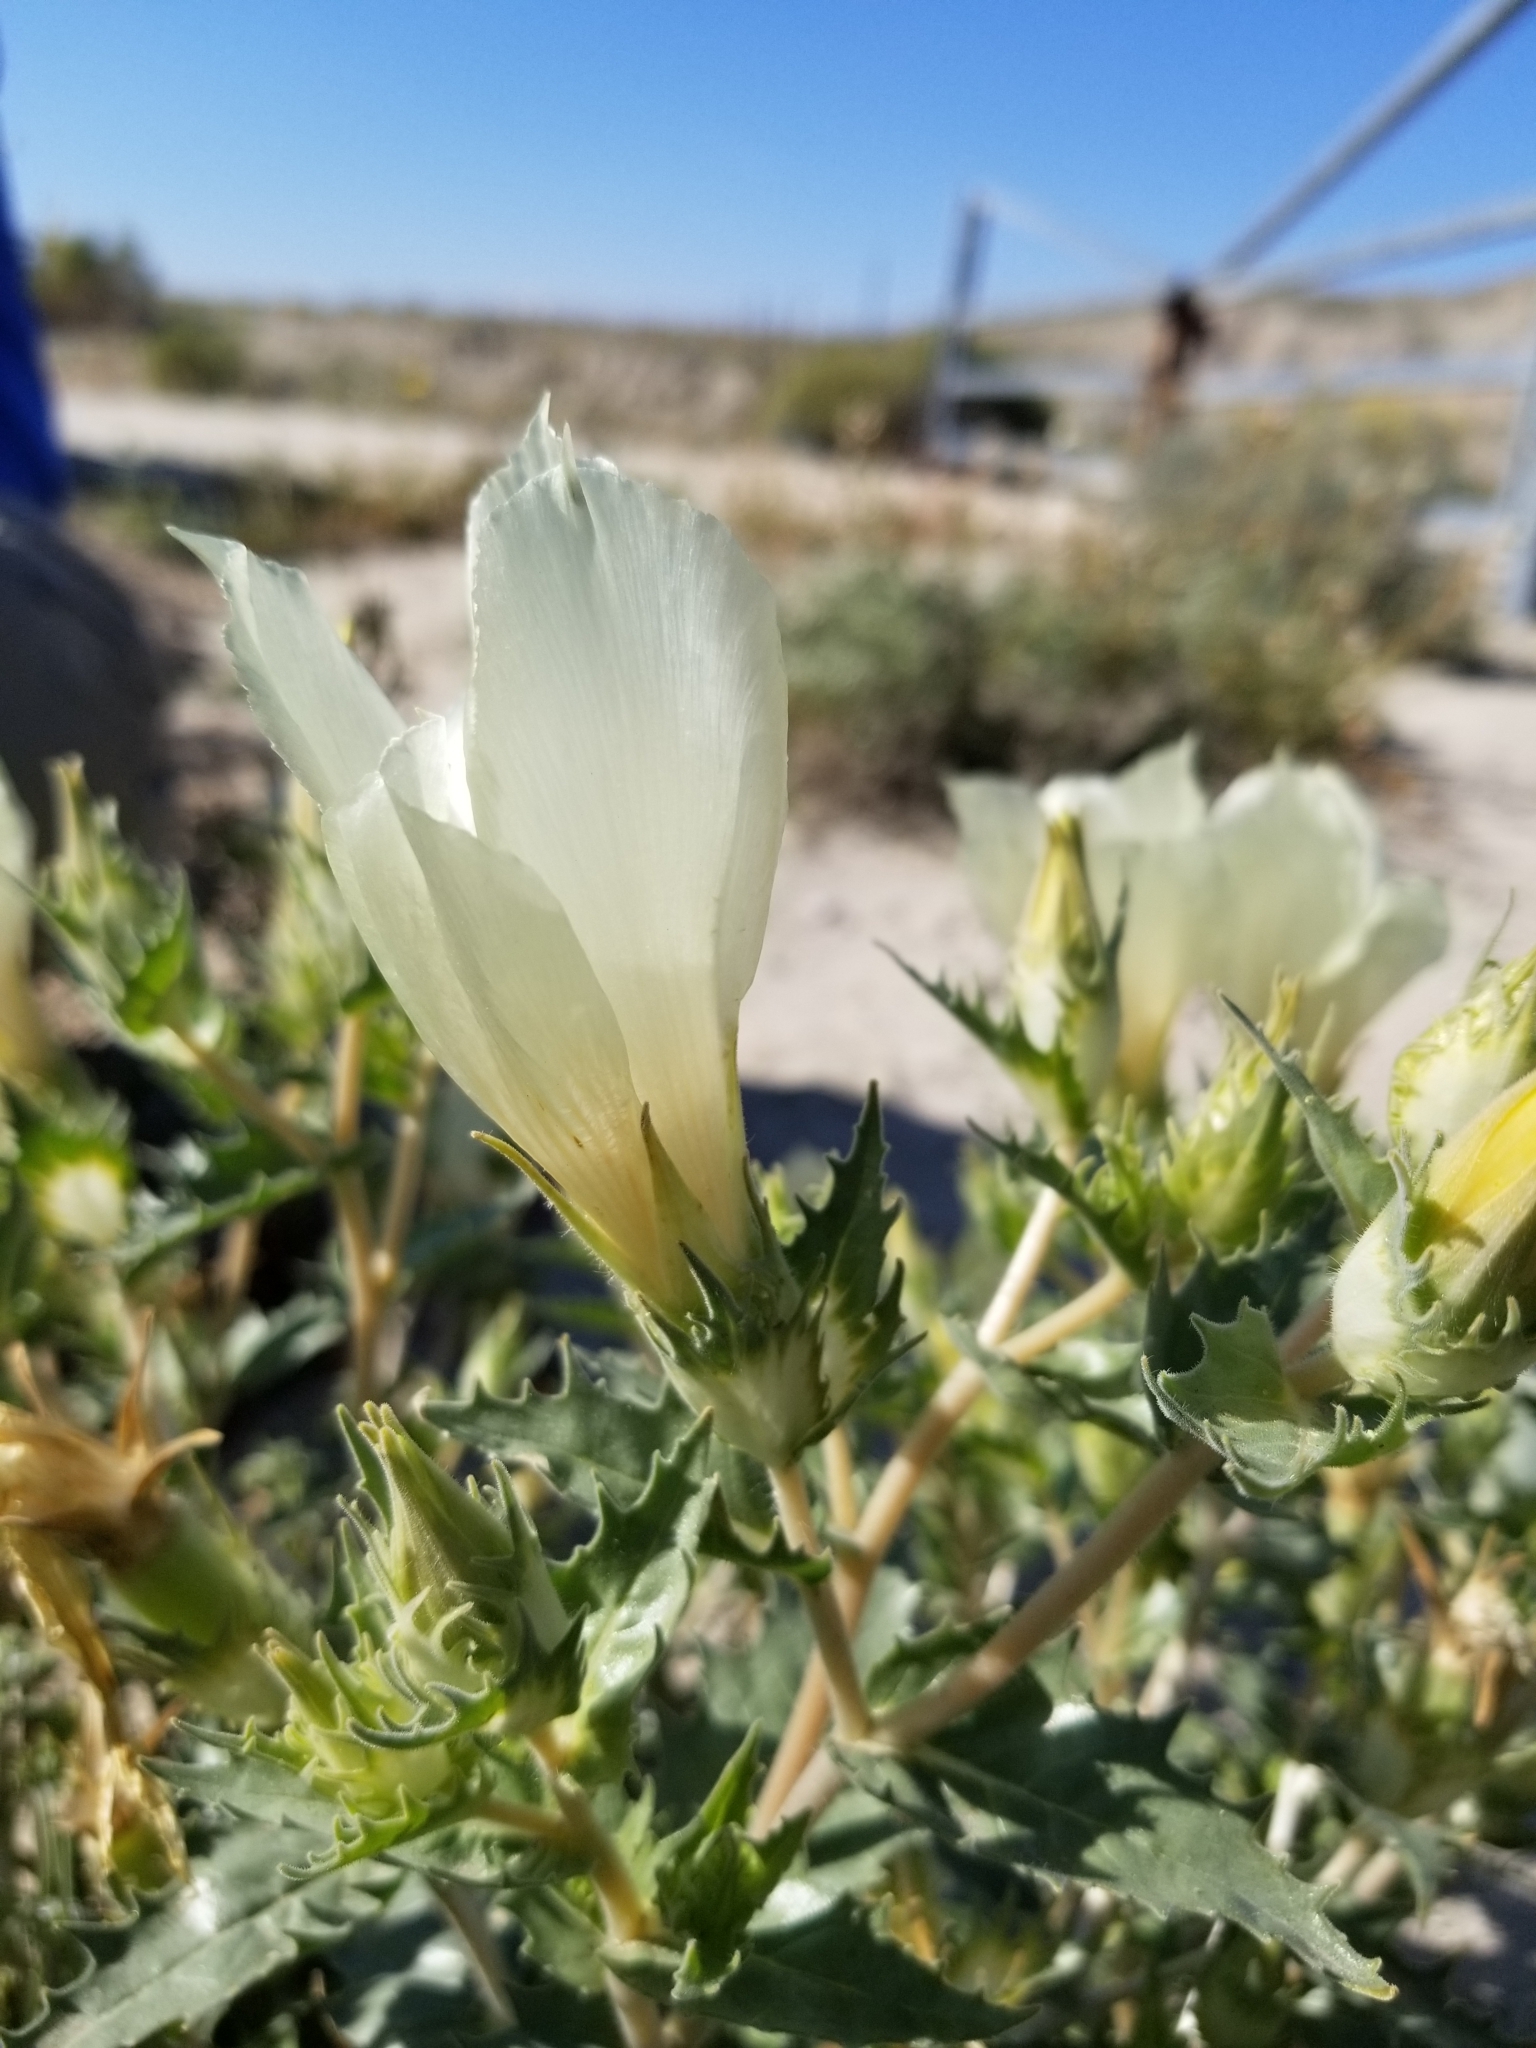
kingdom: Plantae
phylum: Tracheophyta
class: Magnoliopsida
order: Cornales
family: Loasaceae
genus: Mentzelia
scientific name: Mentzelia involucrata
